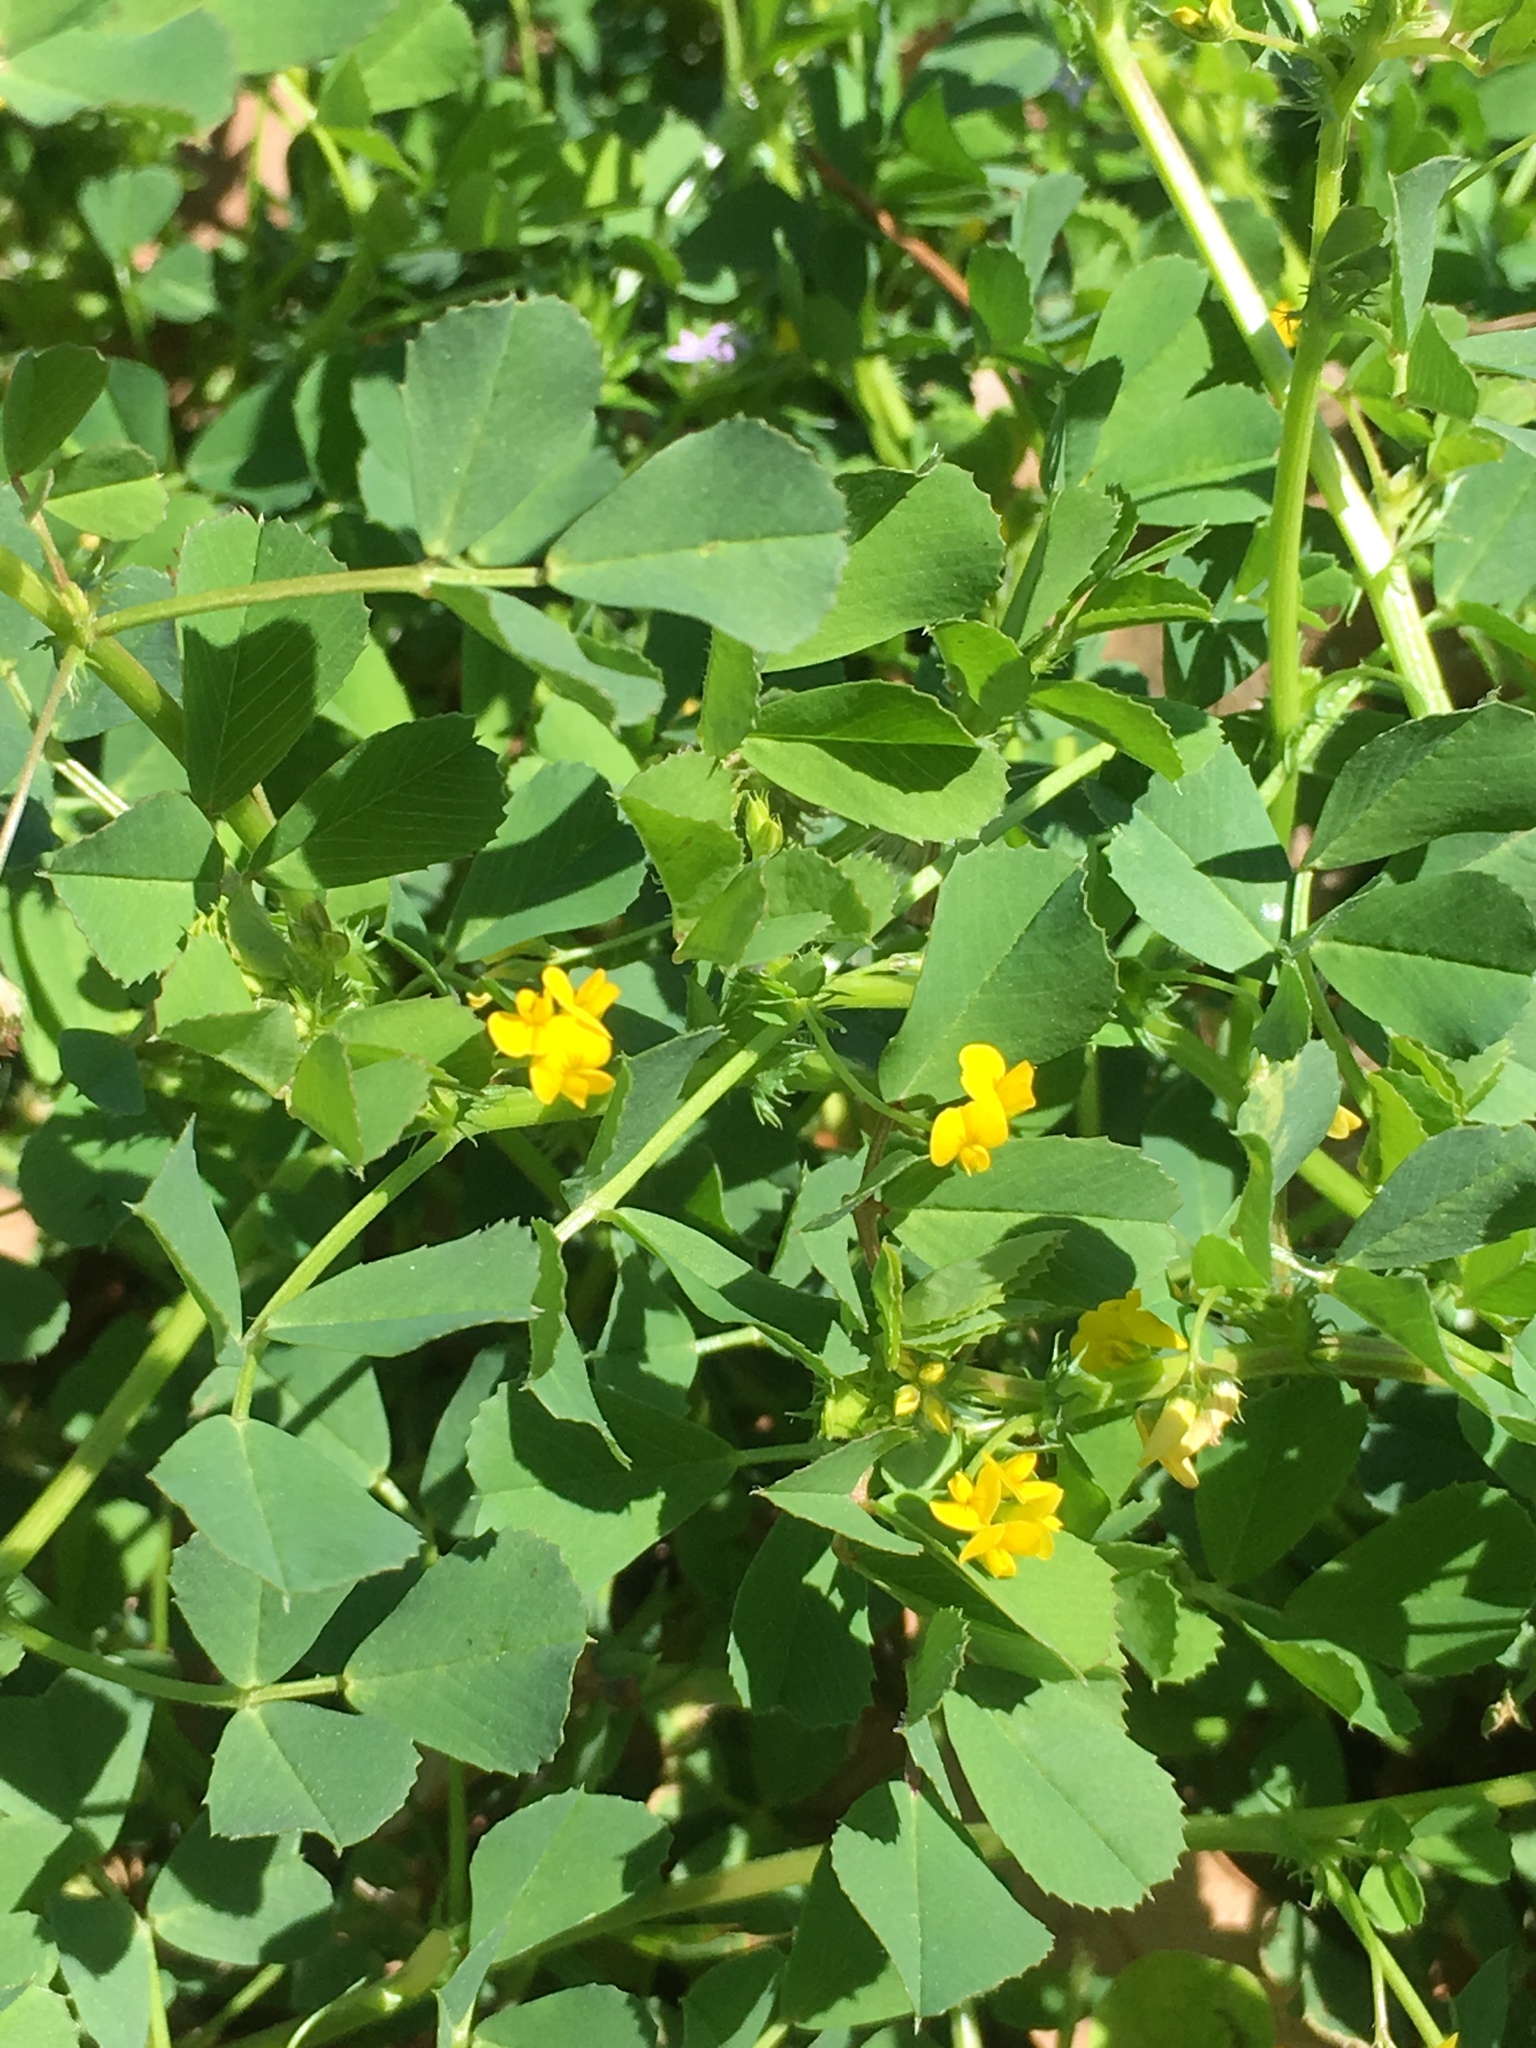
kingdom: Plantae
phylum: Tracheophyta
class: Magnoliopsida
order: Fabales
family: Fabaceae
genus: Medicago
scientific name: Medicago polymorpha
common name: Burclover
